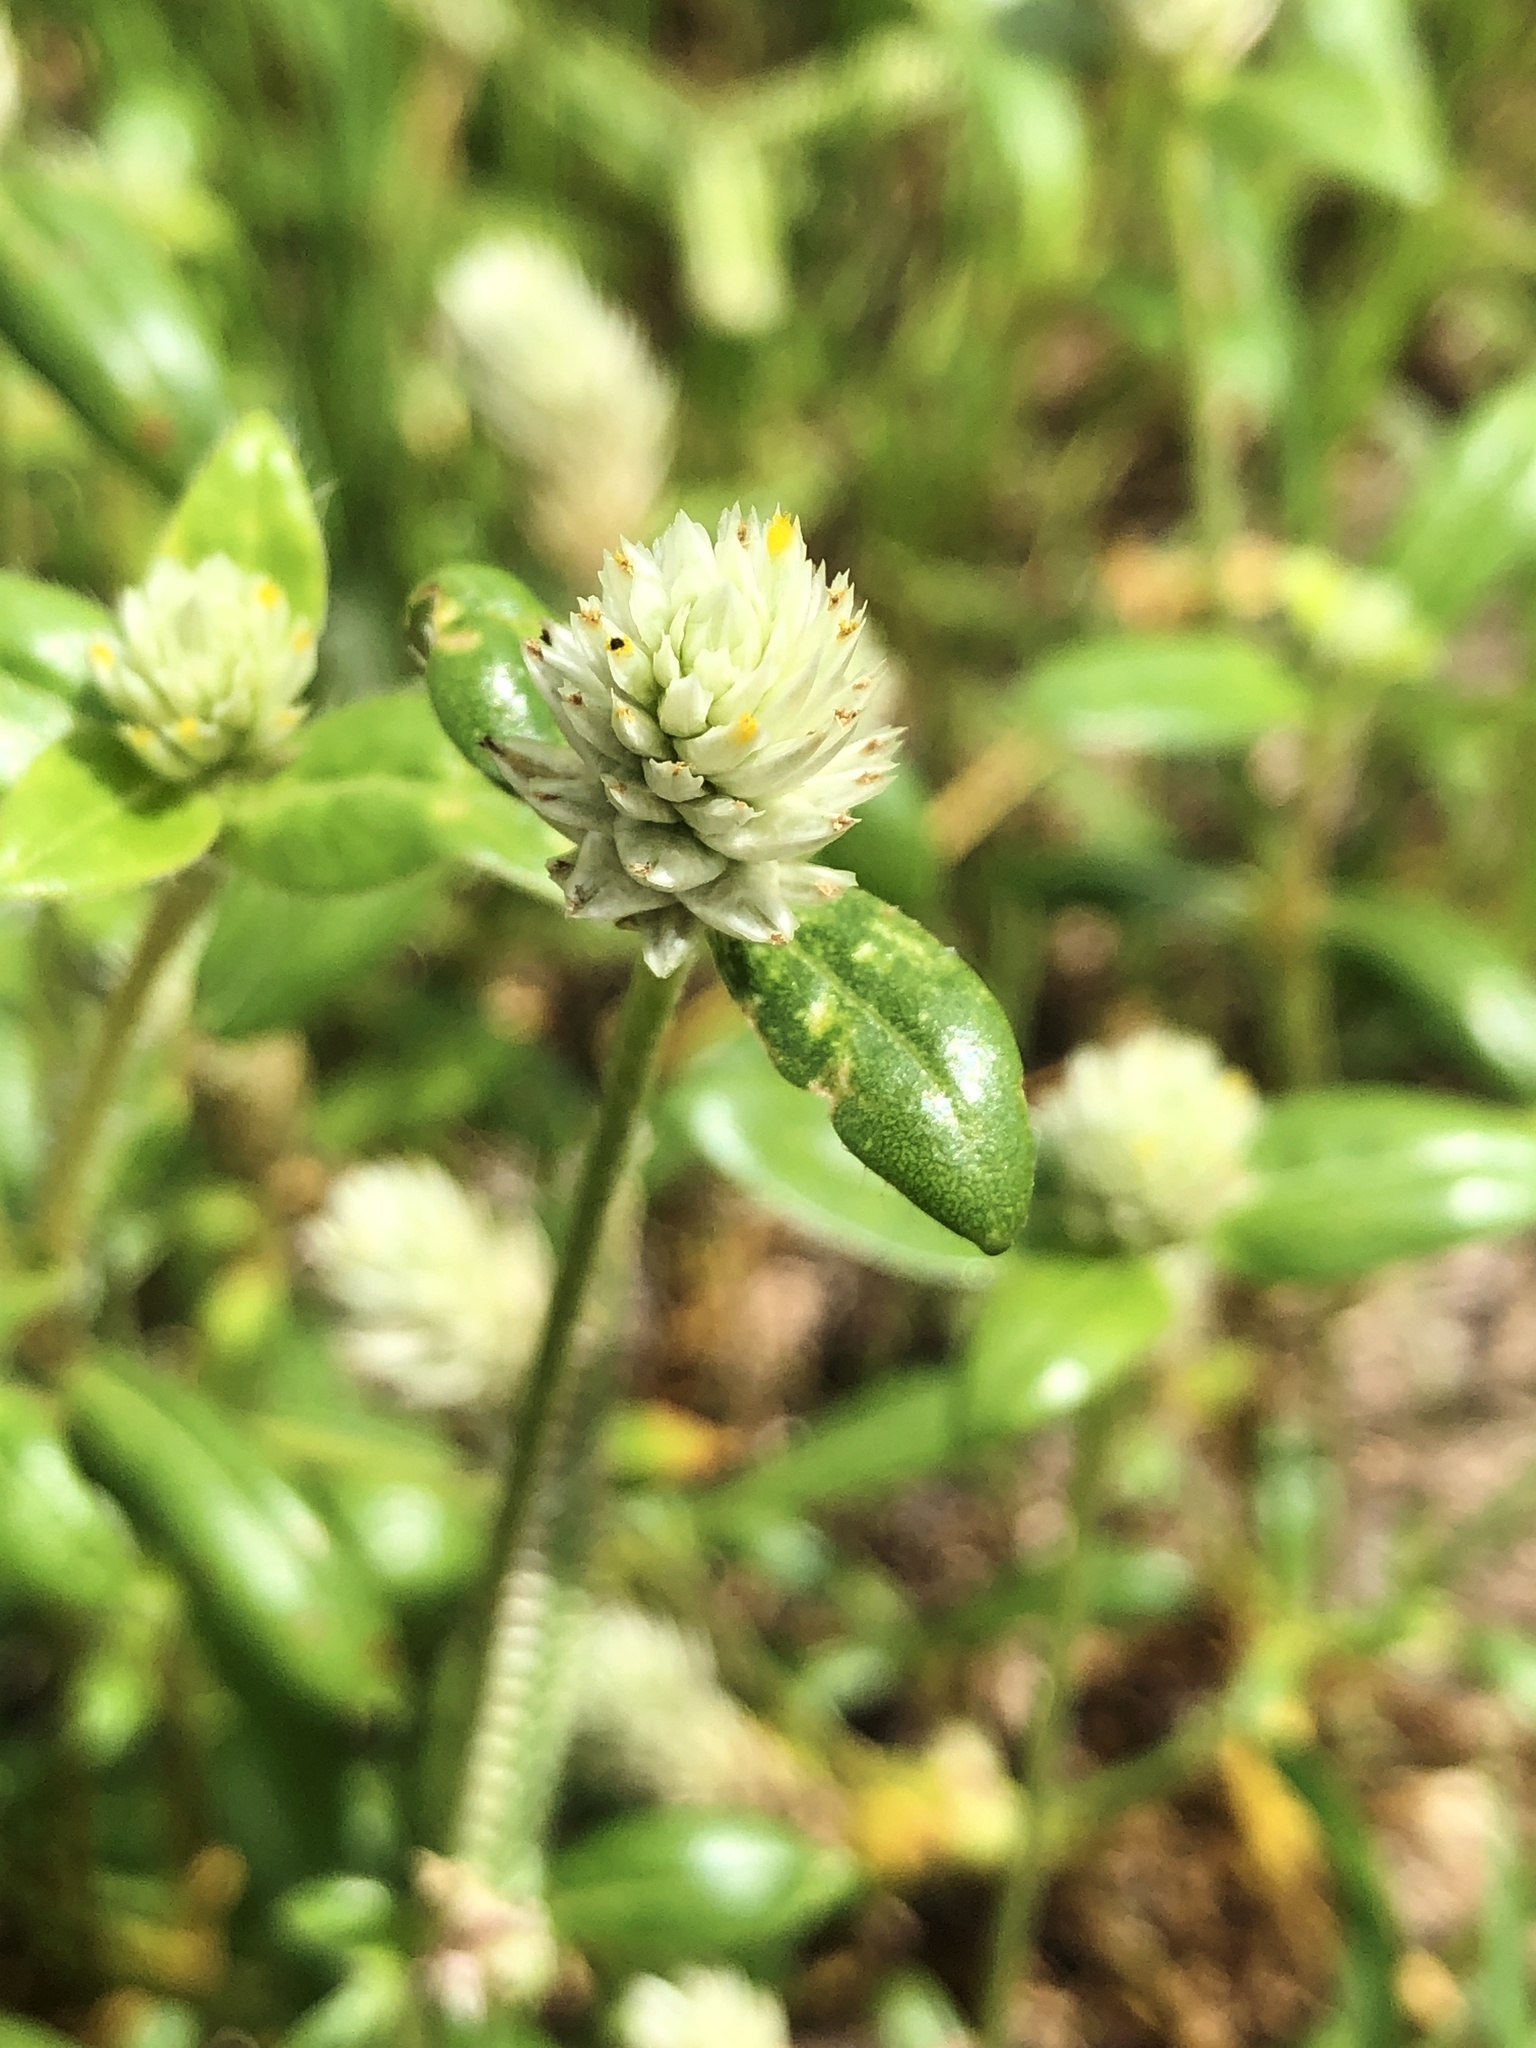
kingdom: Plantae
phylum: Tracheophyta
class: Magnoliopsida
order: Caryophyllales
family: Amaranthaceae
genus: Gomphrena
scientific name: Gomphrena celosioides
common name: Gomphrena-weed
